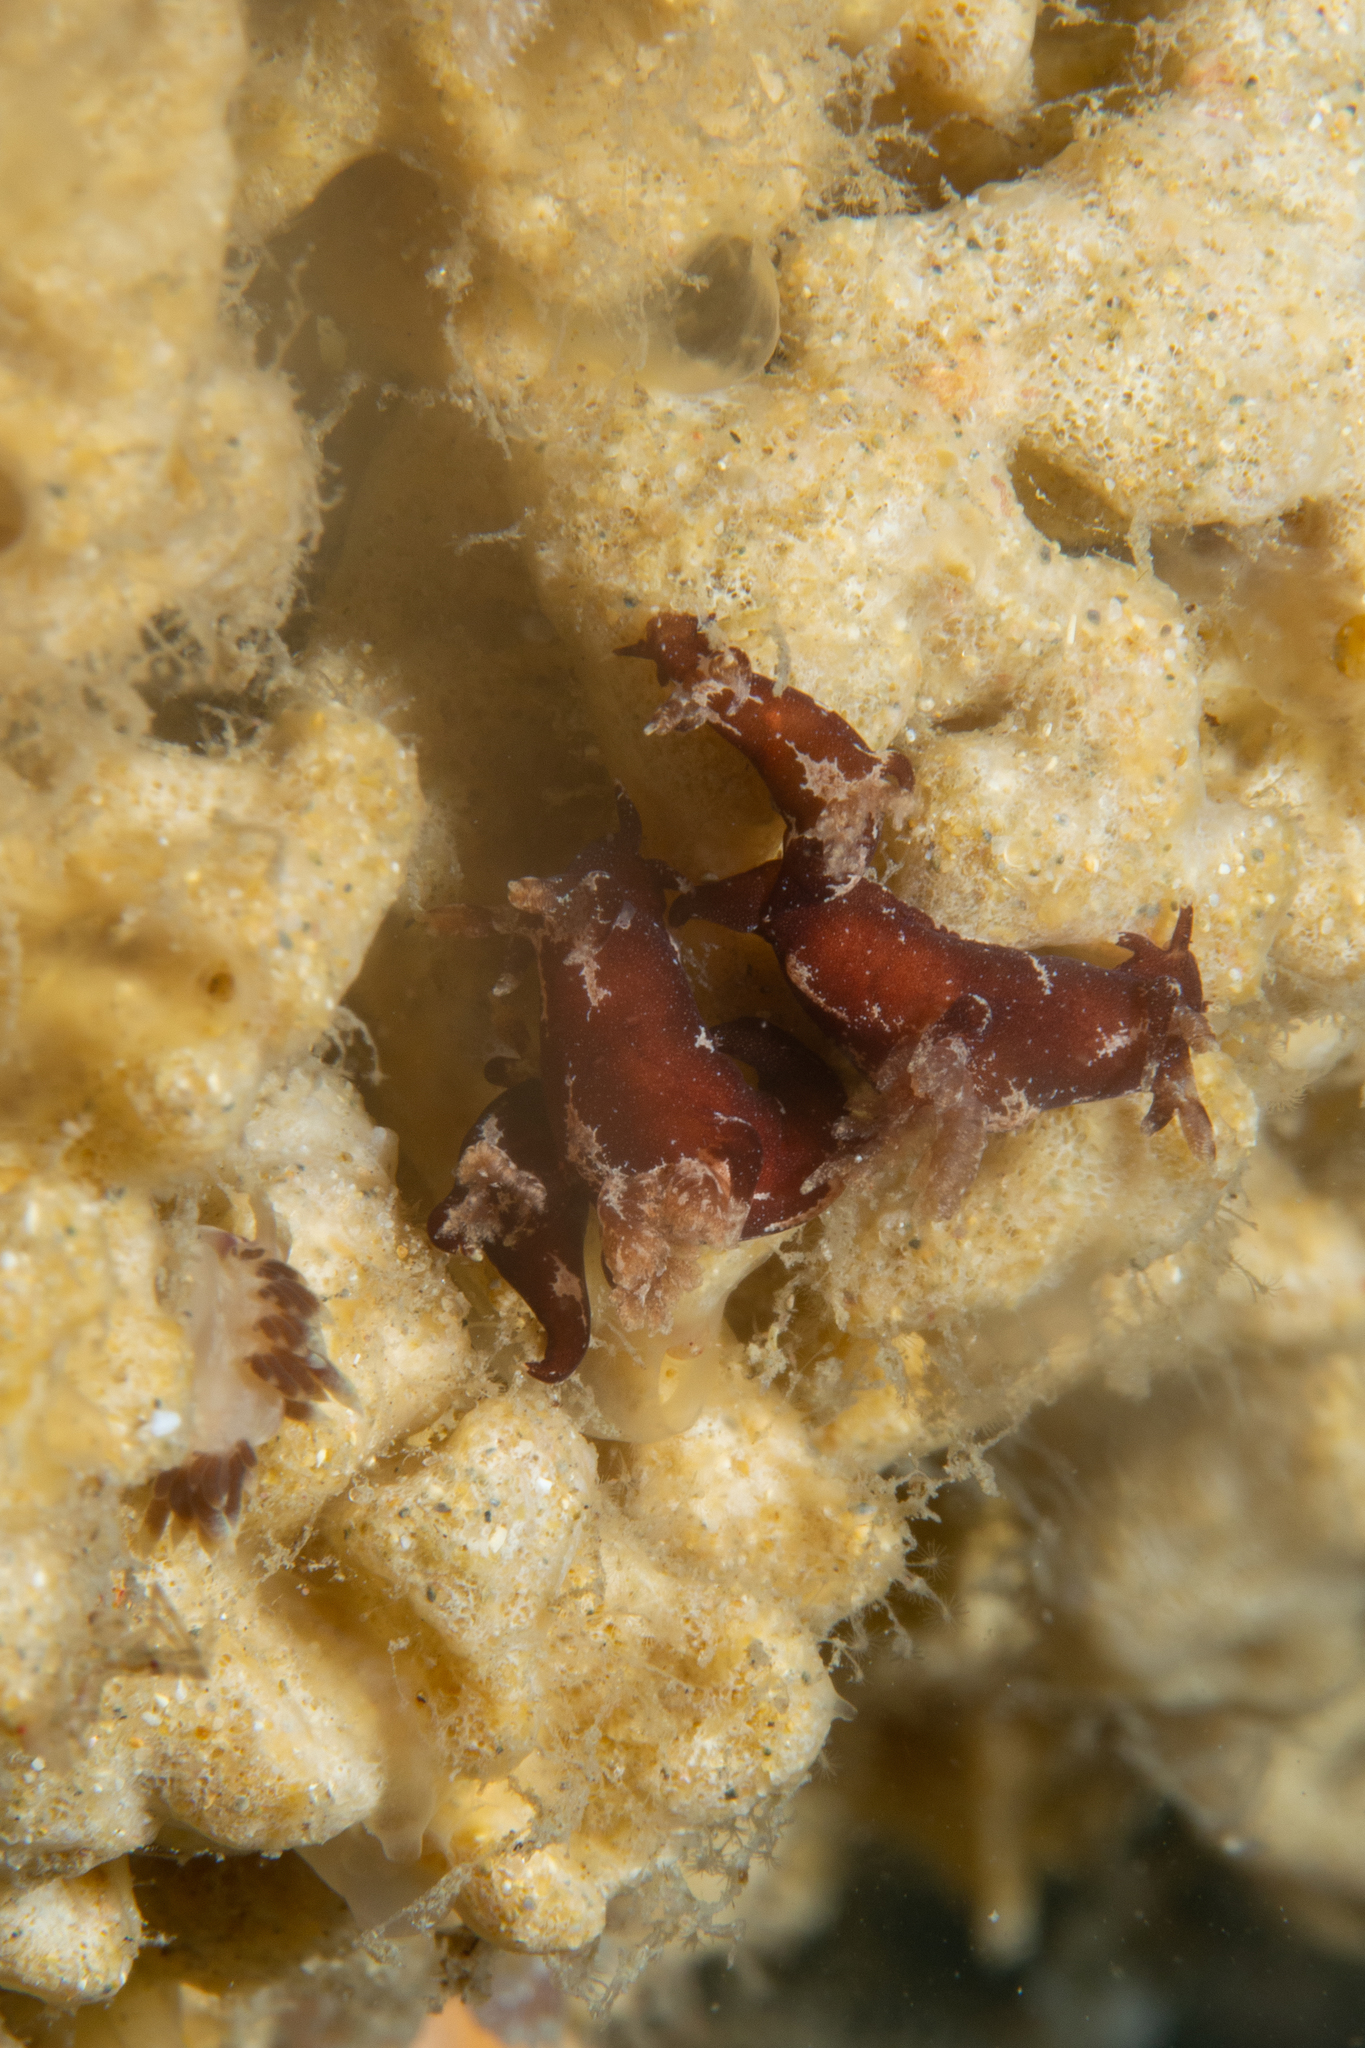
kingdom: Animalia
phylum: Mollusca
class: Gastropoda
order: Nudibranchia
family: Goniodorididae
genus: Trapania
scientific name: Trapania brunnea
